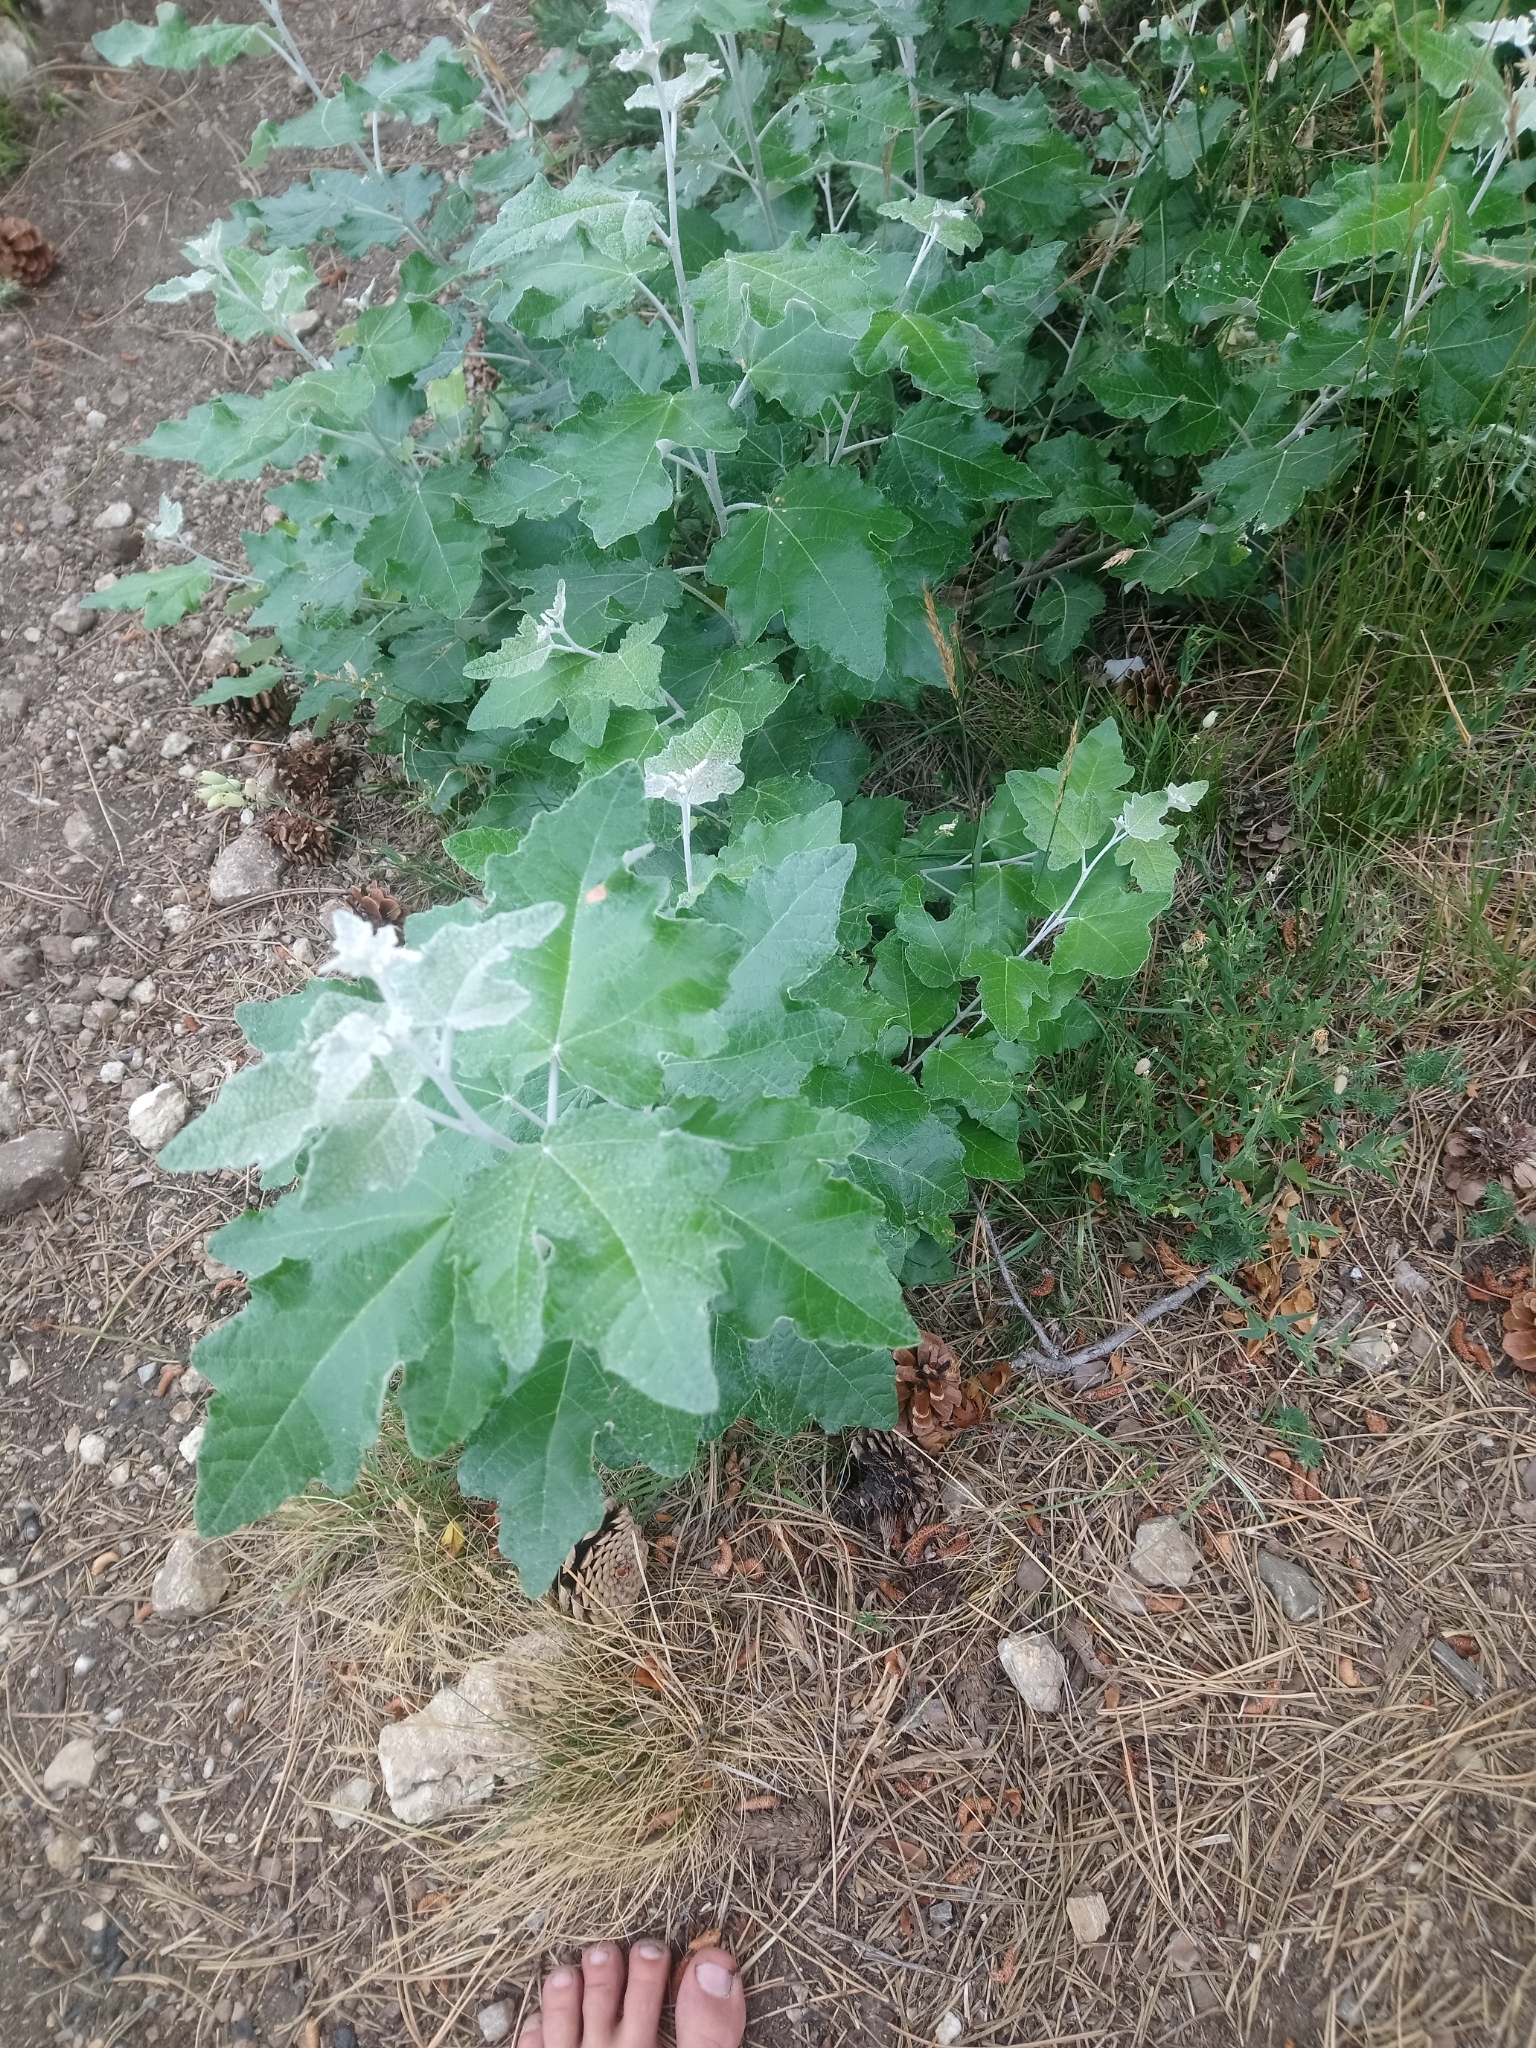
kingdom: Plantae
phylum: Tracheophyta
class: Magnoliopsida
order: Malpighiales
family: Salicaceae
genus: Populus
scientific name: Populus alba
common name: White poplar
